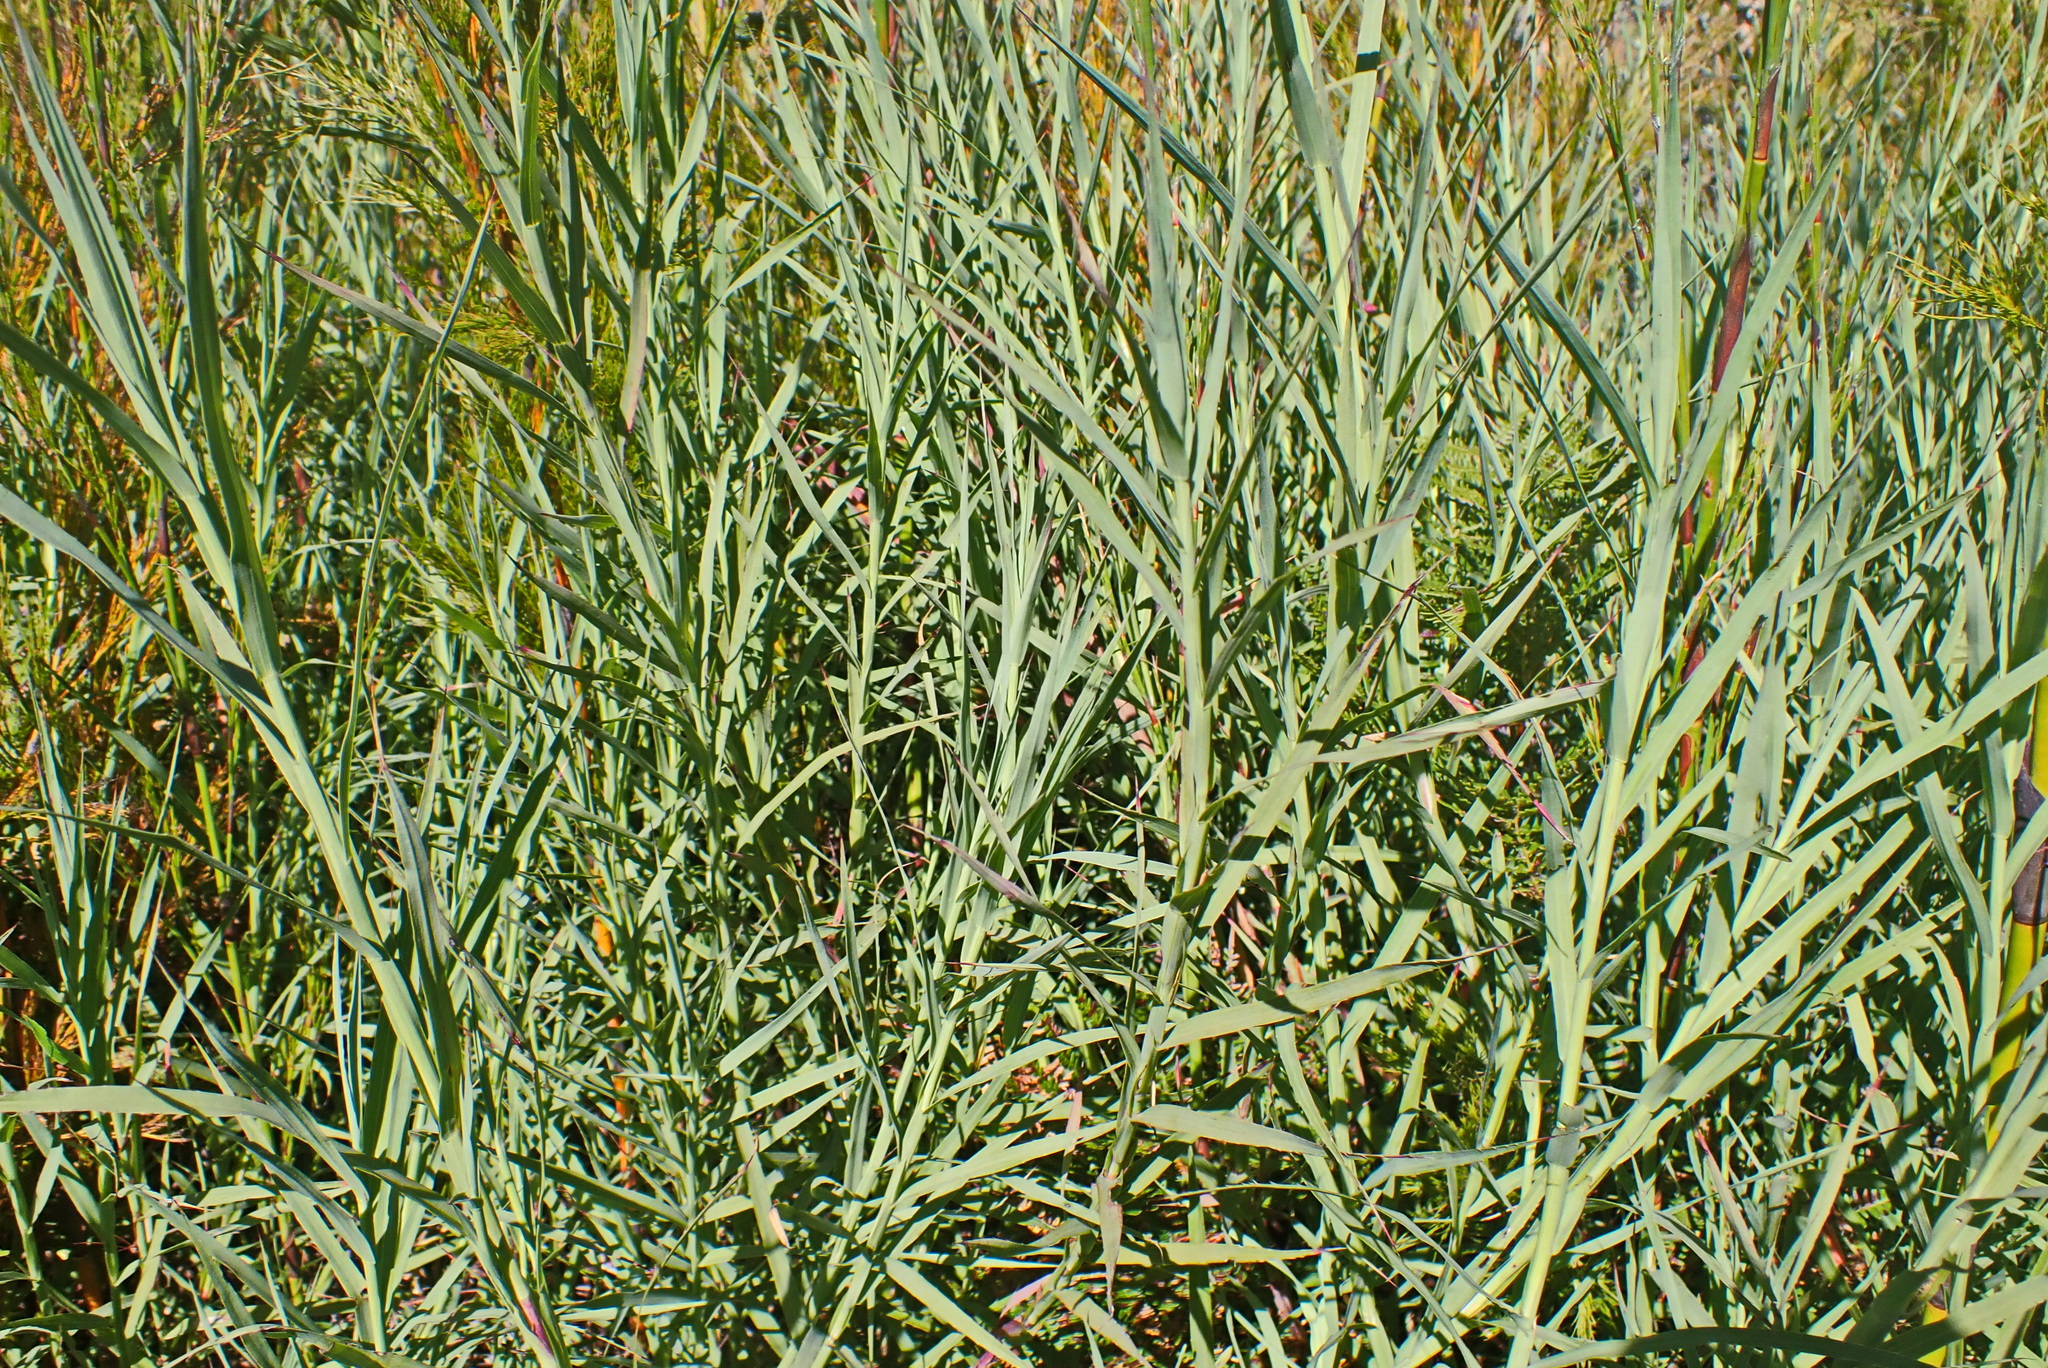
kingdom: Plantae
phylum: Tracheophyta
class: Magnoliopsida
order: Rosales
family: Rosaceae
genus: Cliffortia
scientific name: Cliffortia graminea
